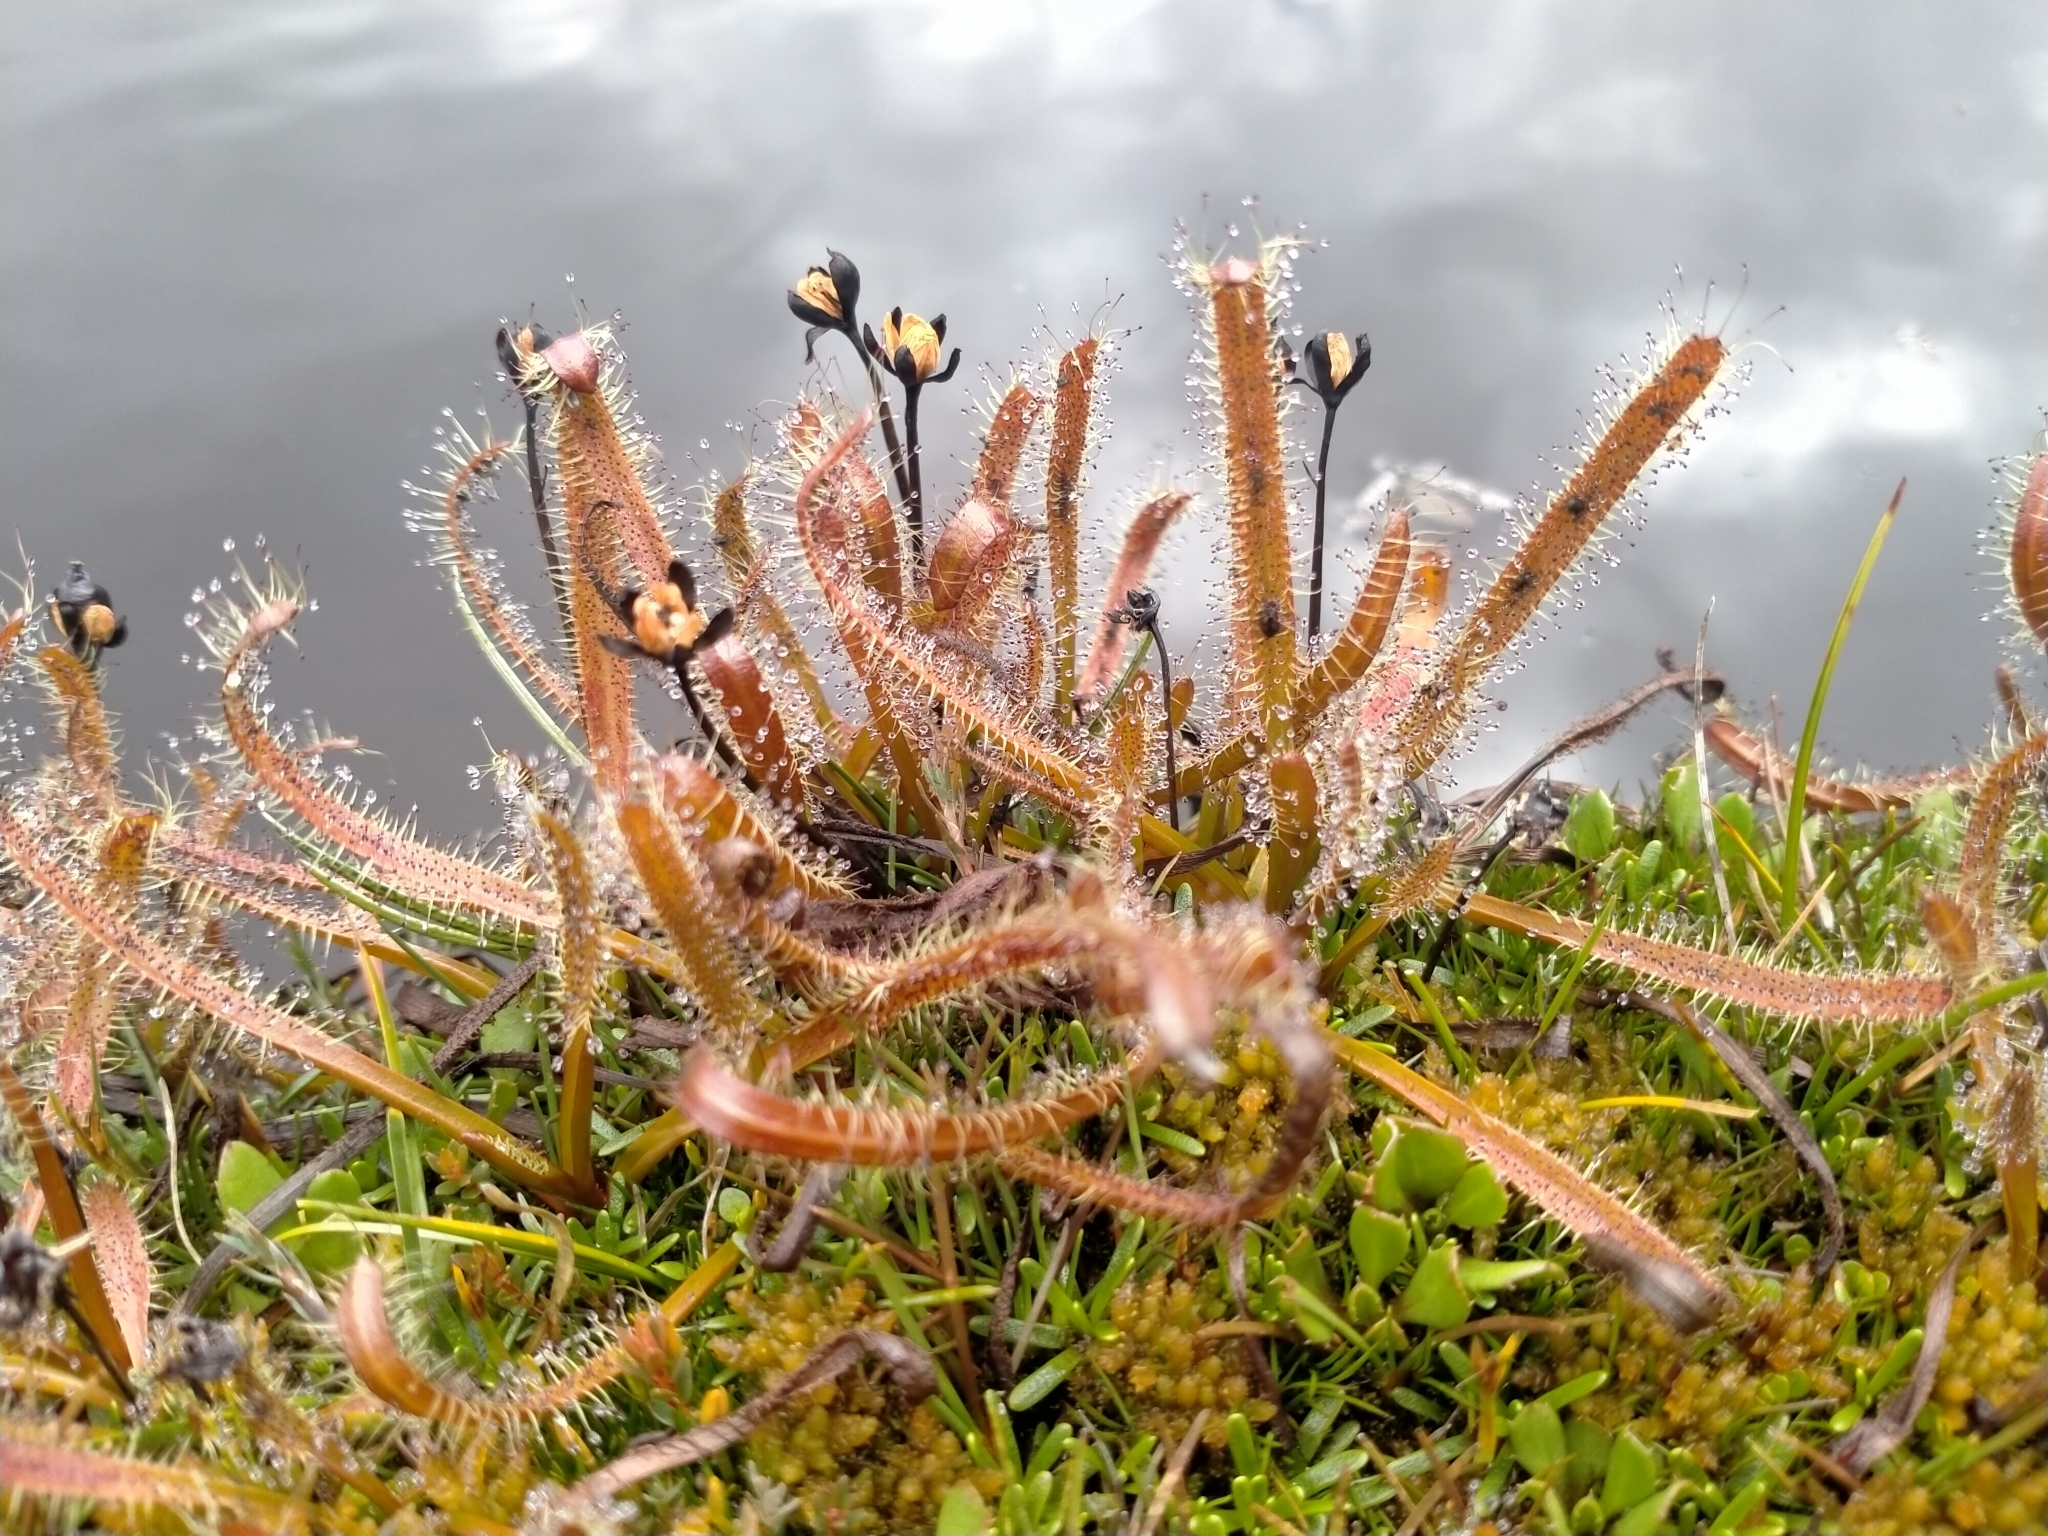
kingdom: Plantae
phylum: Tracheophyta
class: Magnoliopsida
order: Caryophyllales
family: Droseraceae
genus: Drosera
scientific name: Drosera arcturi
